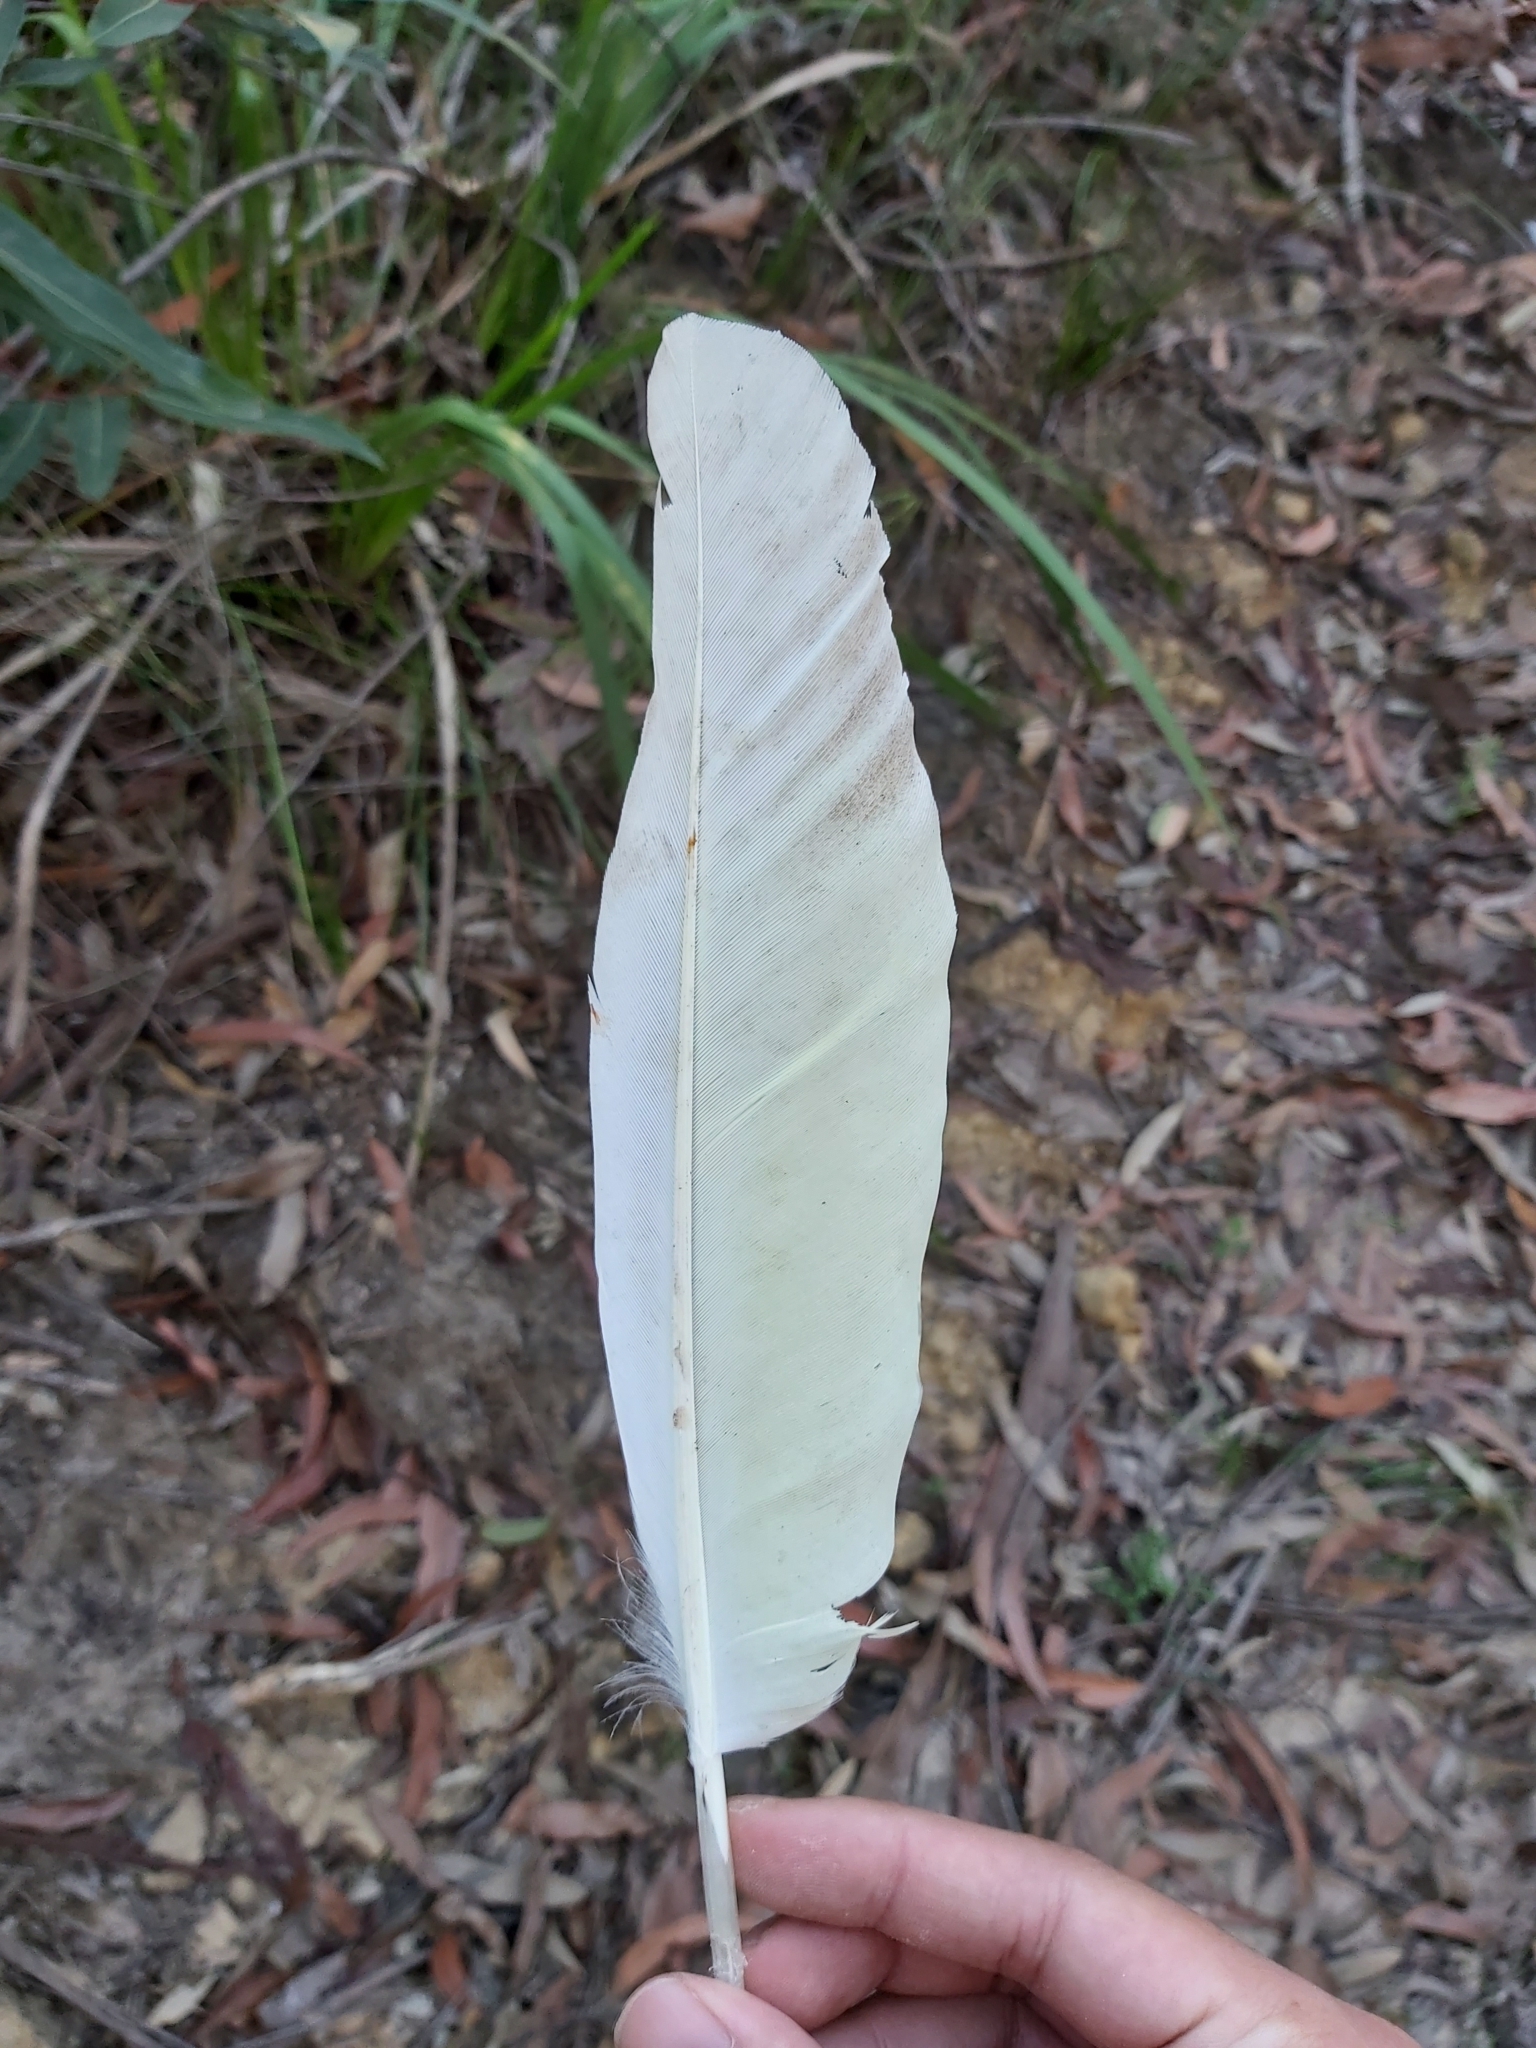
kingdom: Animalia
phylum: Chordata
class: Aves
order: Psittaciformes
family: Psittacidae
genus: Cacatua
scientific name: Cacatua galerita
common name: Sulphur-crested cockatoo
